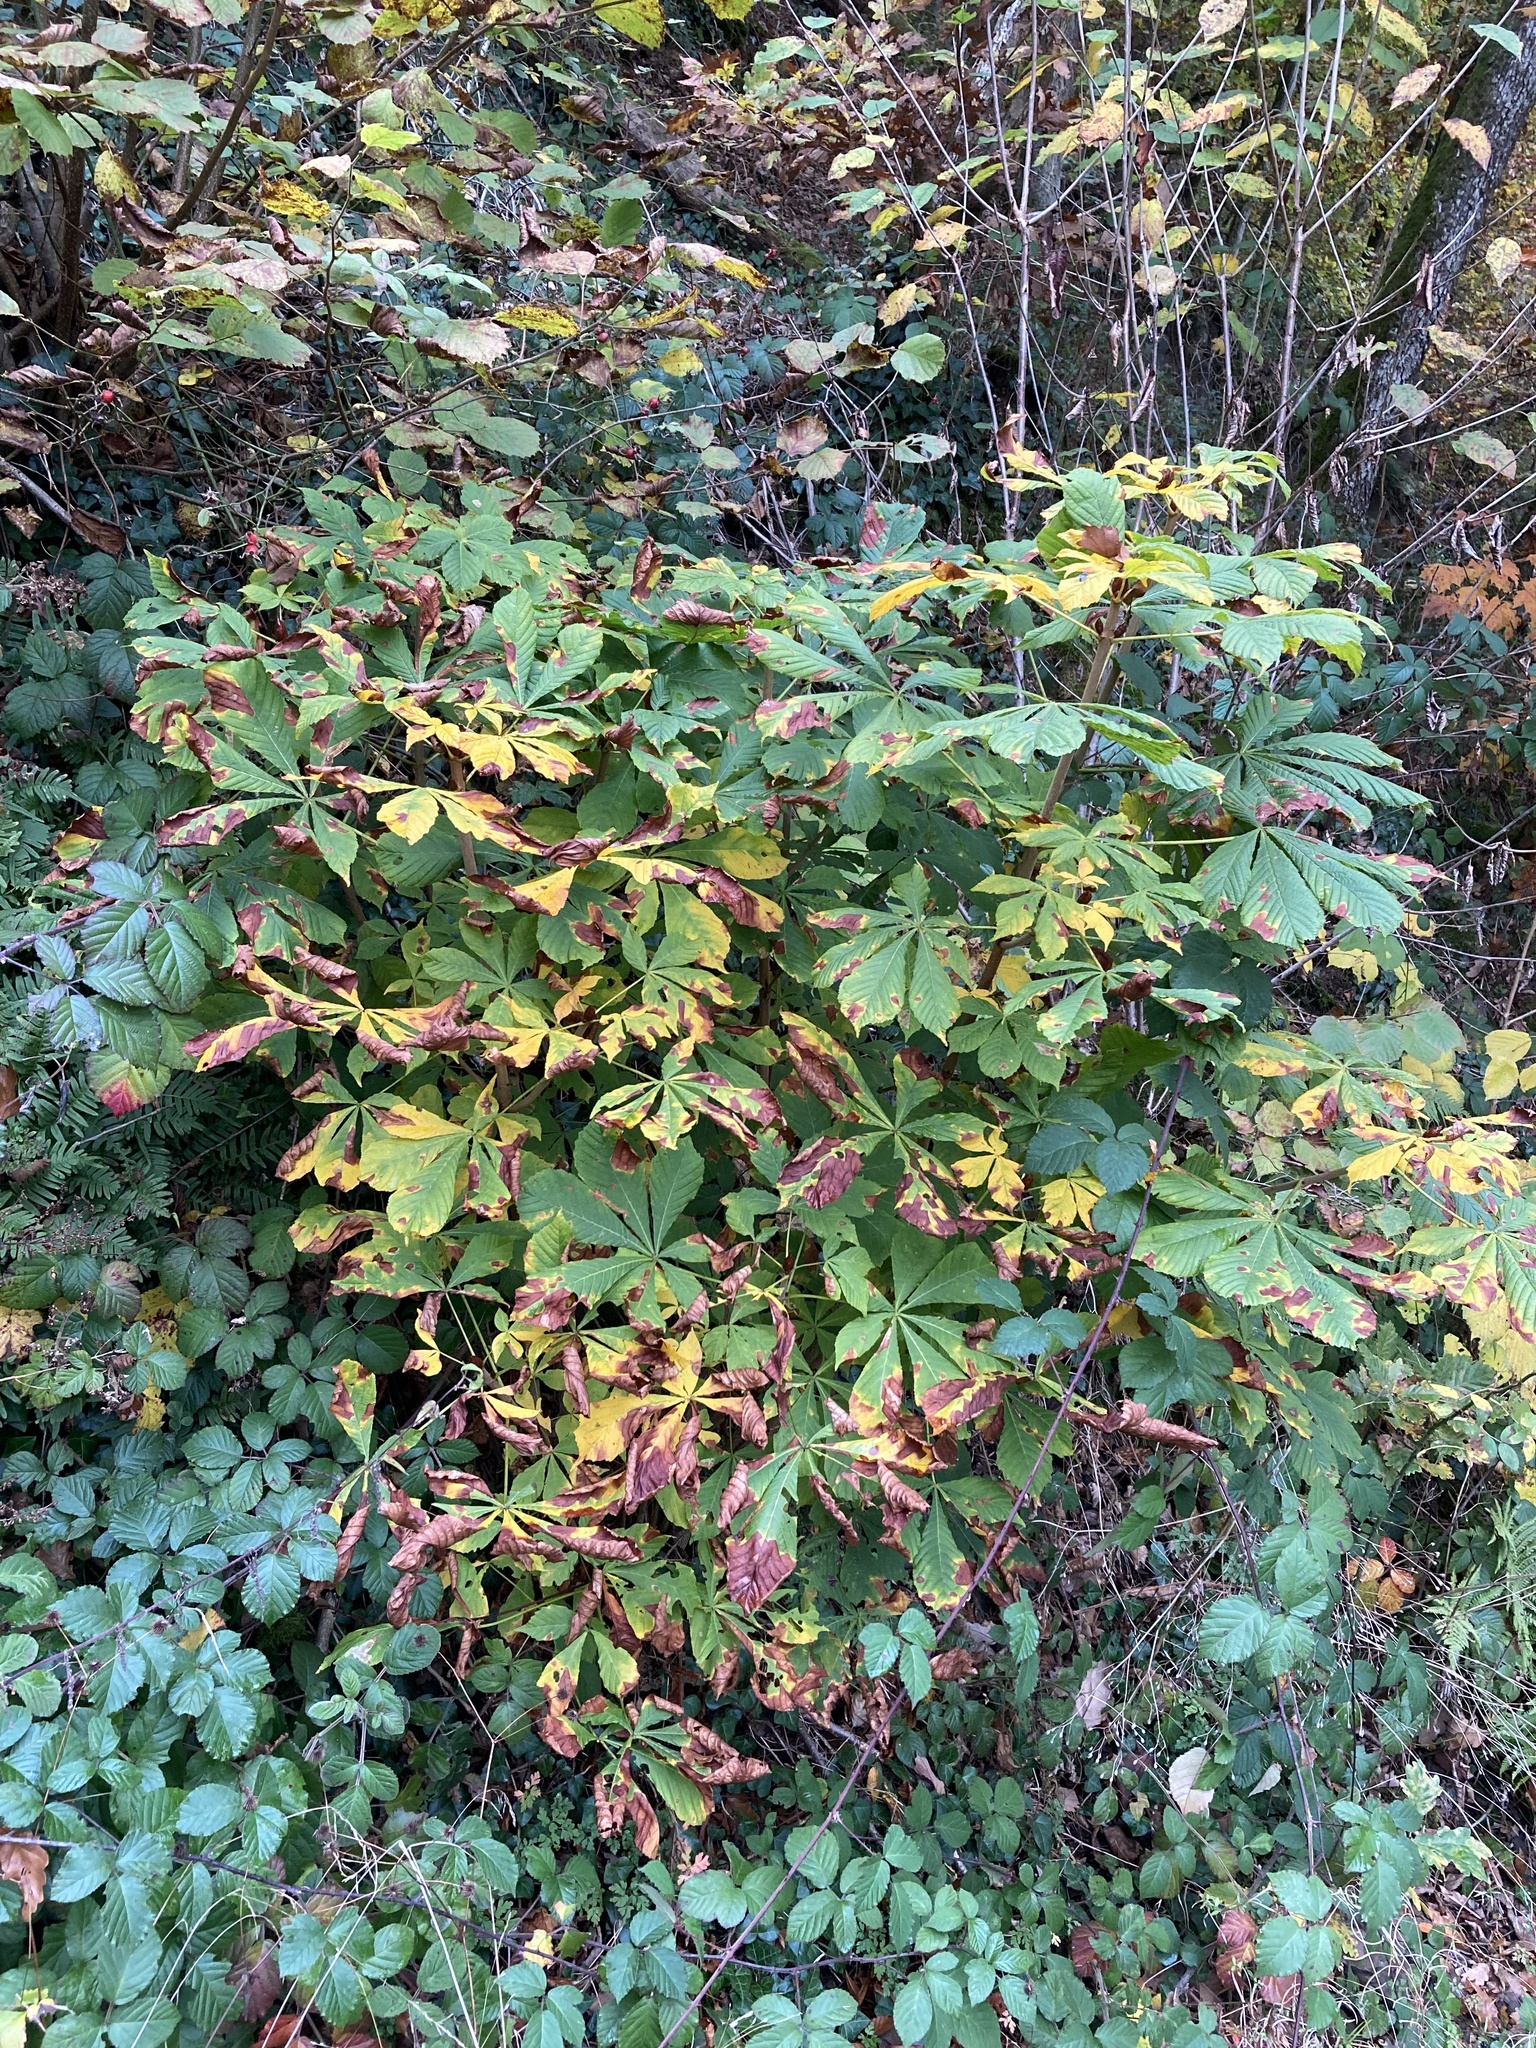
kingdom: Plantae
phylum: Tracheophyta
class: Magnoliopsida
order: Sapindales
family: Sapindaceae
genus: Aesculus
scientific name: Aesculus hippocastanum
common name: Horse-chestnut
